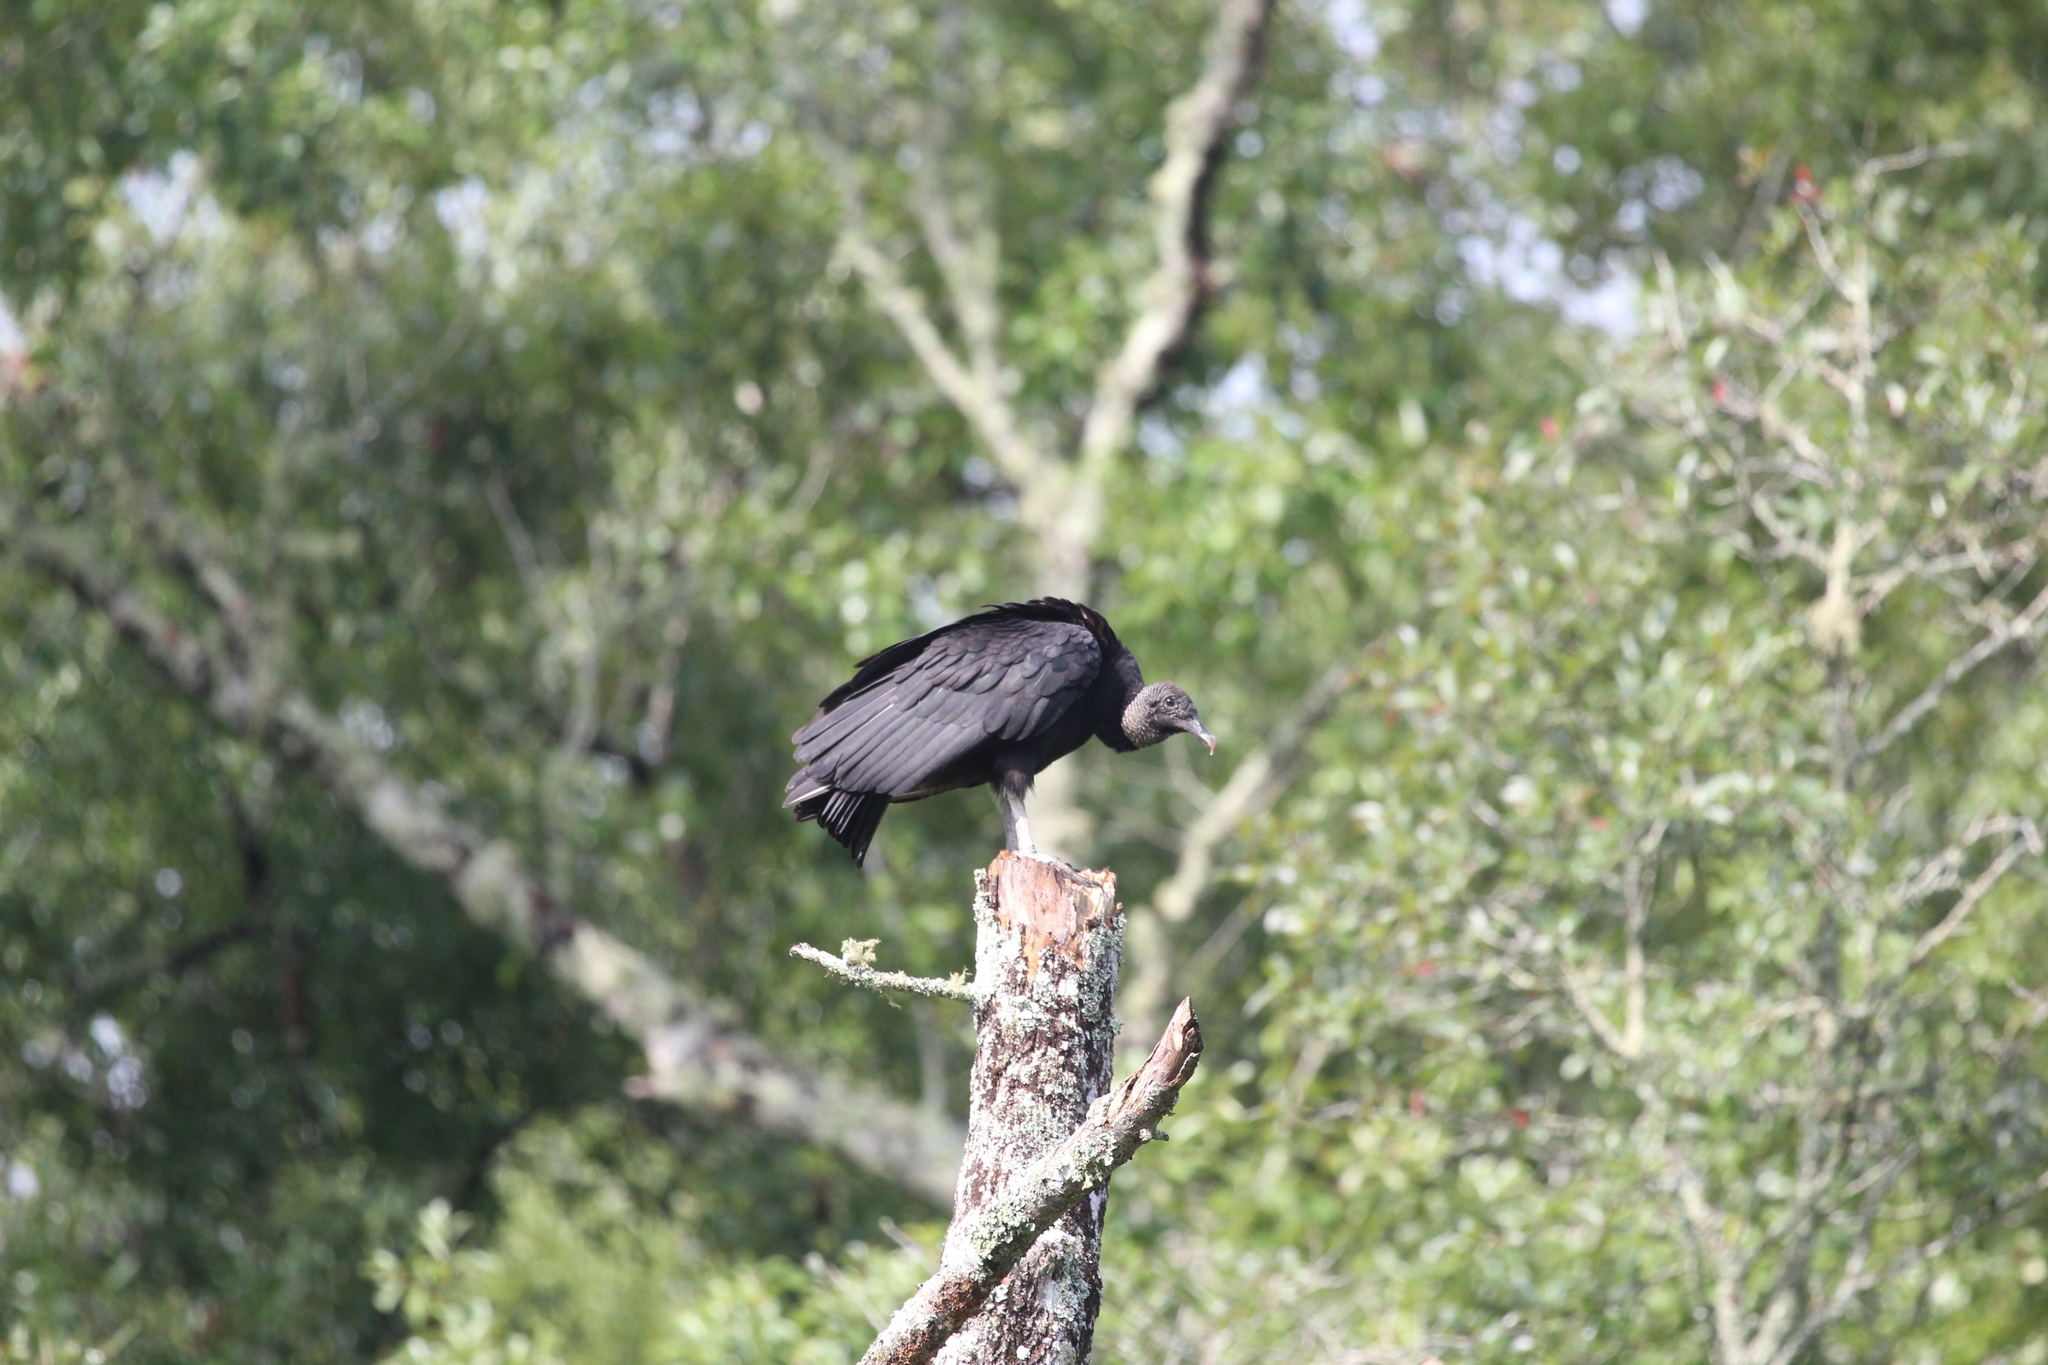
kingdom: Animalia
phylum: Chordata
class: Aves
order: Accipitriformes
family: Cathartidae
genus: Coragyps
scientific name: Coragyps atratus
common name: Black vulture
